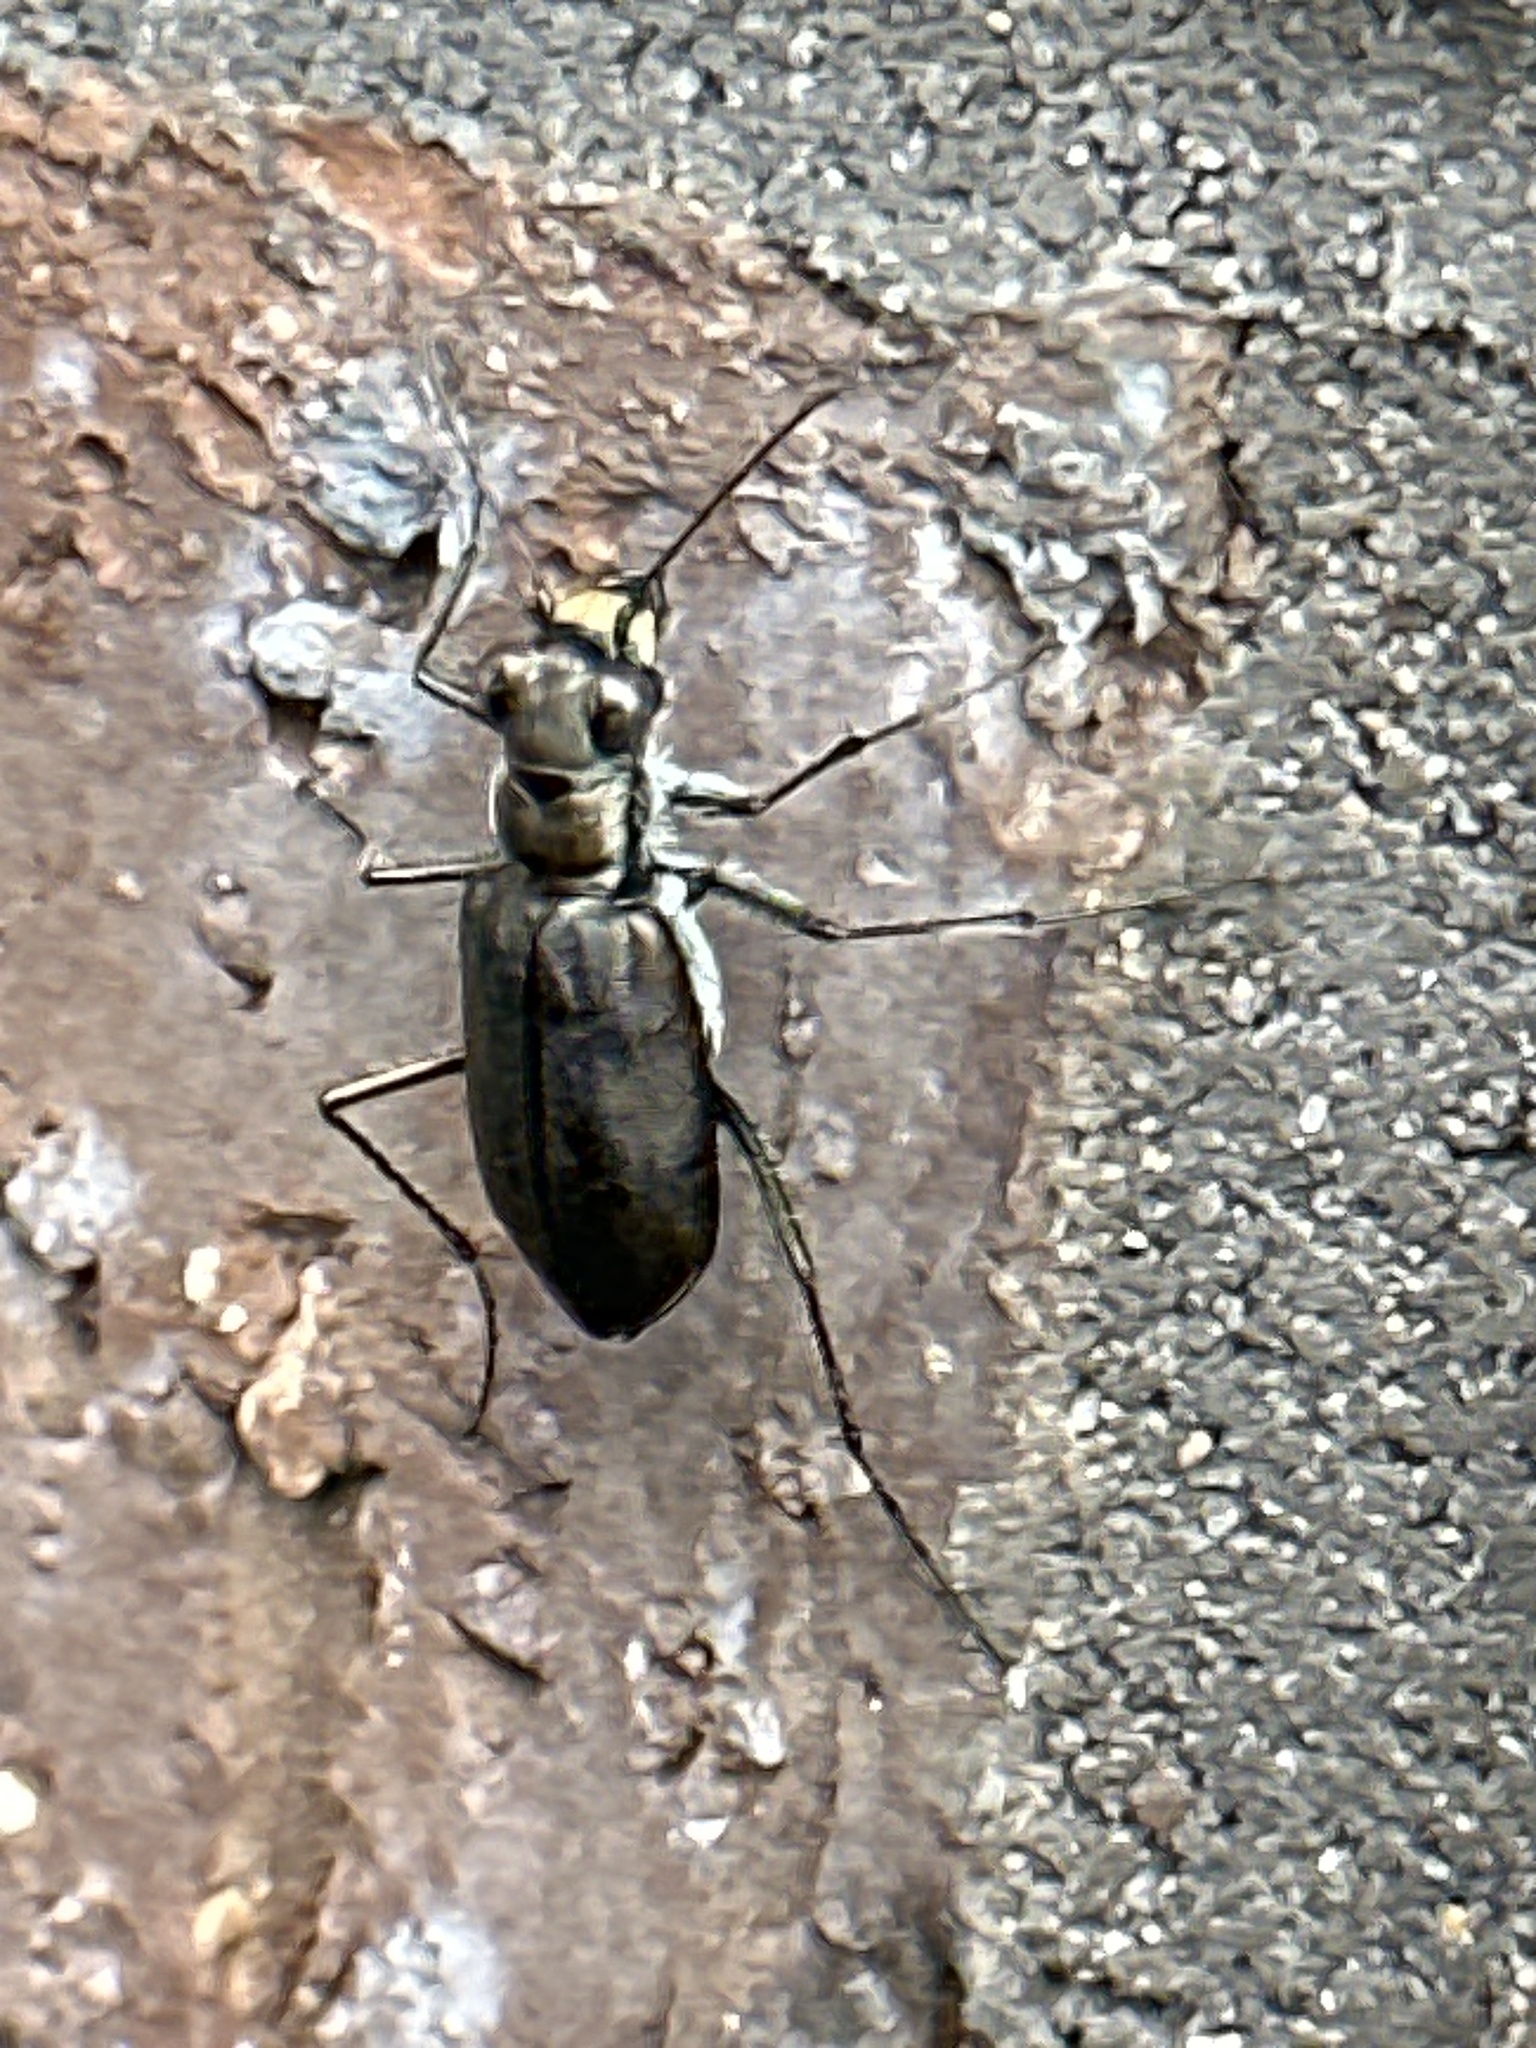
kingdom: Animalia
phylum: Arthropoda
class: Insecta
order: Coleoptera
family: Carabidae
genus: Cicindela
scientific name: Cicindela punctulata
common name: Punctured tiger beetle
